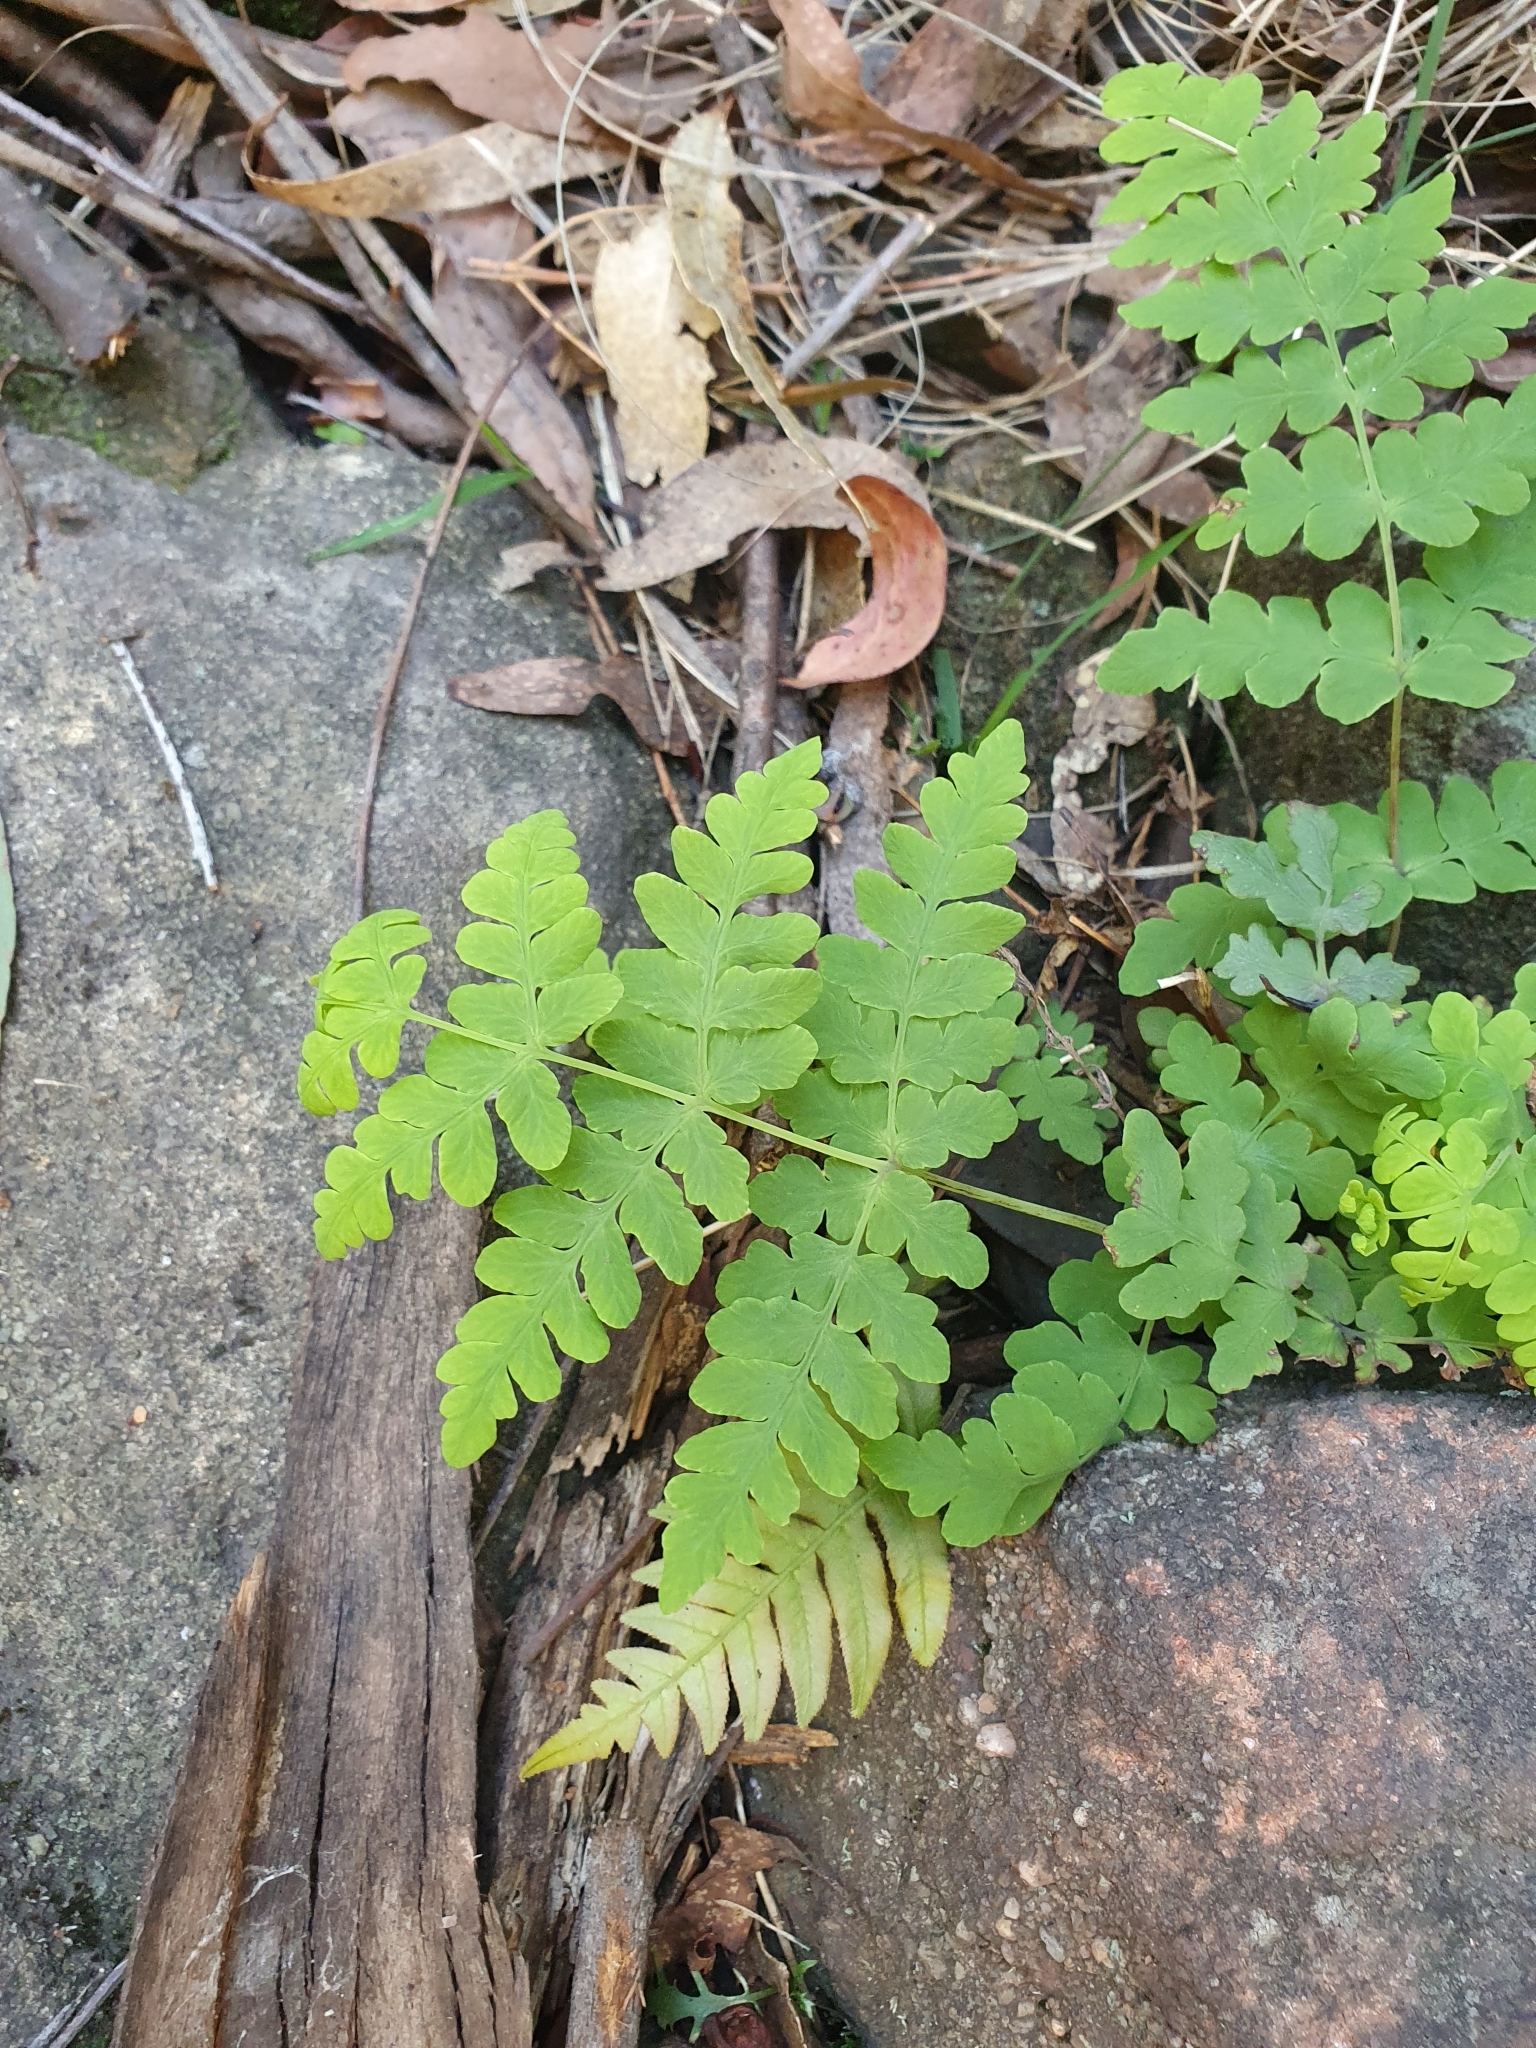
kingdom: Plantae
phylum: Tracheophyta
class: Polypodiopsida
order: Polypodiales
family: Dennstaedtiaceae
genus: Histiopteris
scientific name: Histiopteris incisa
